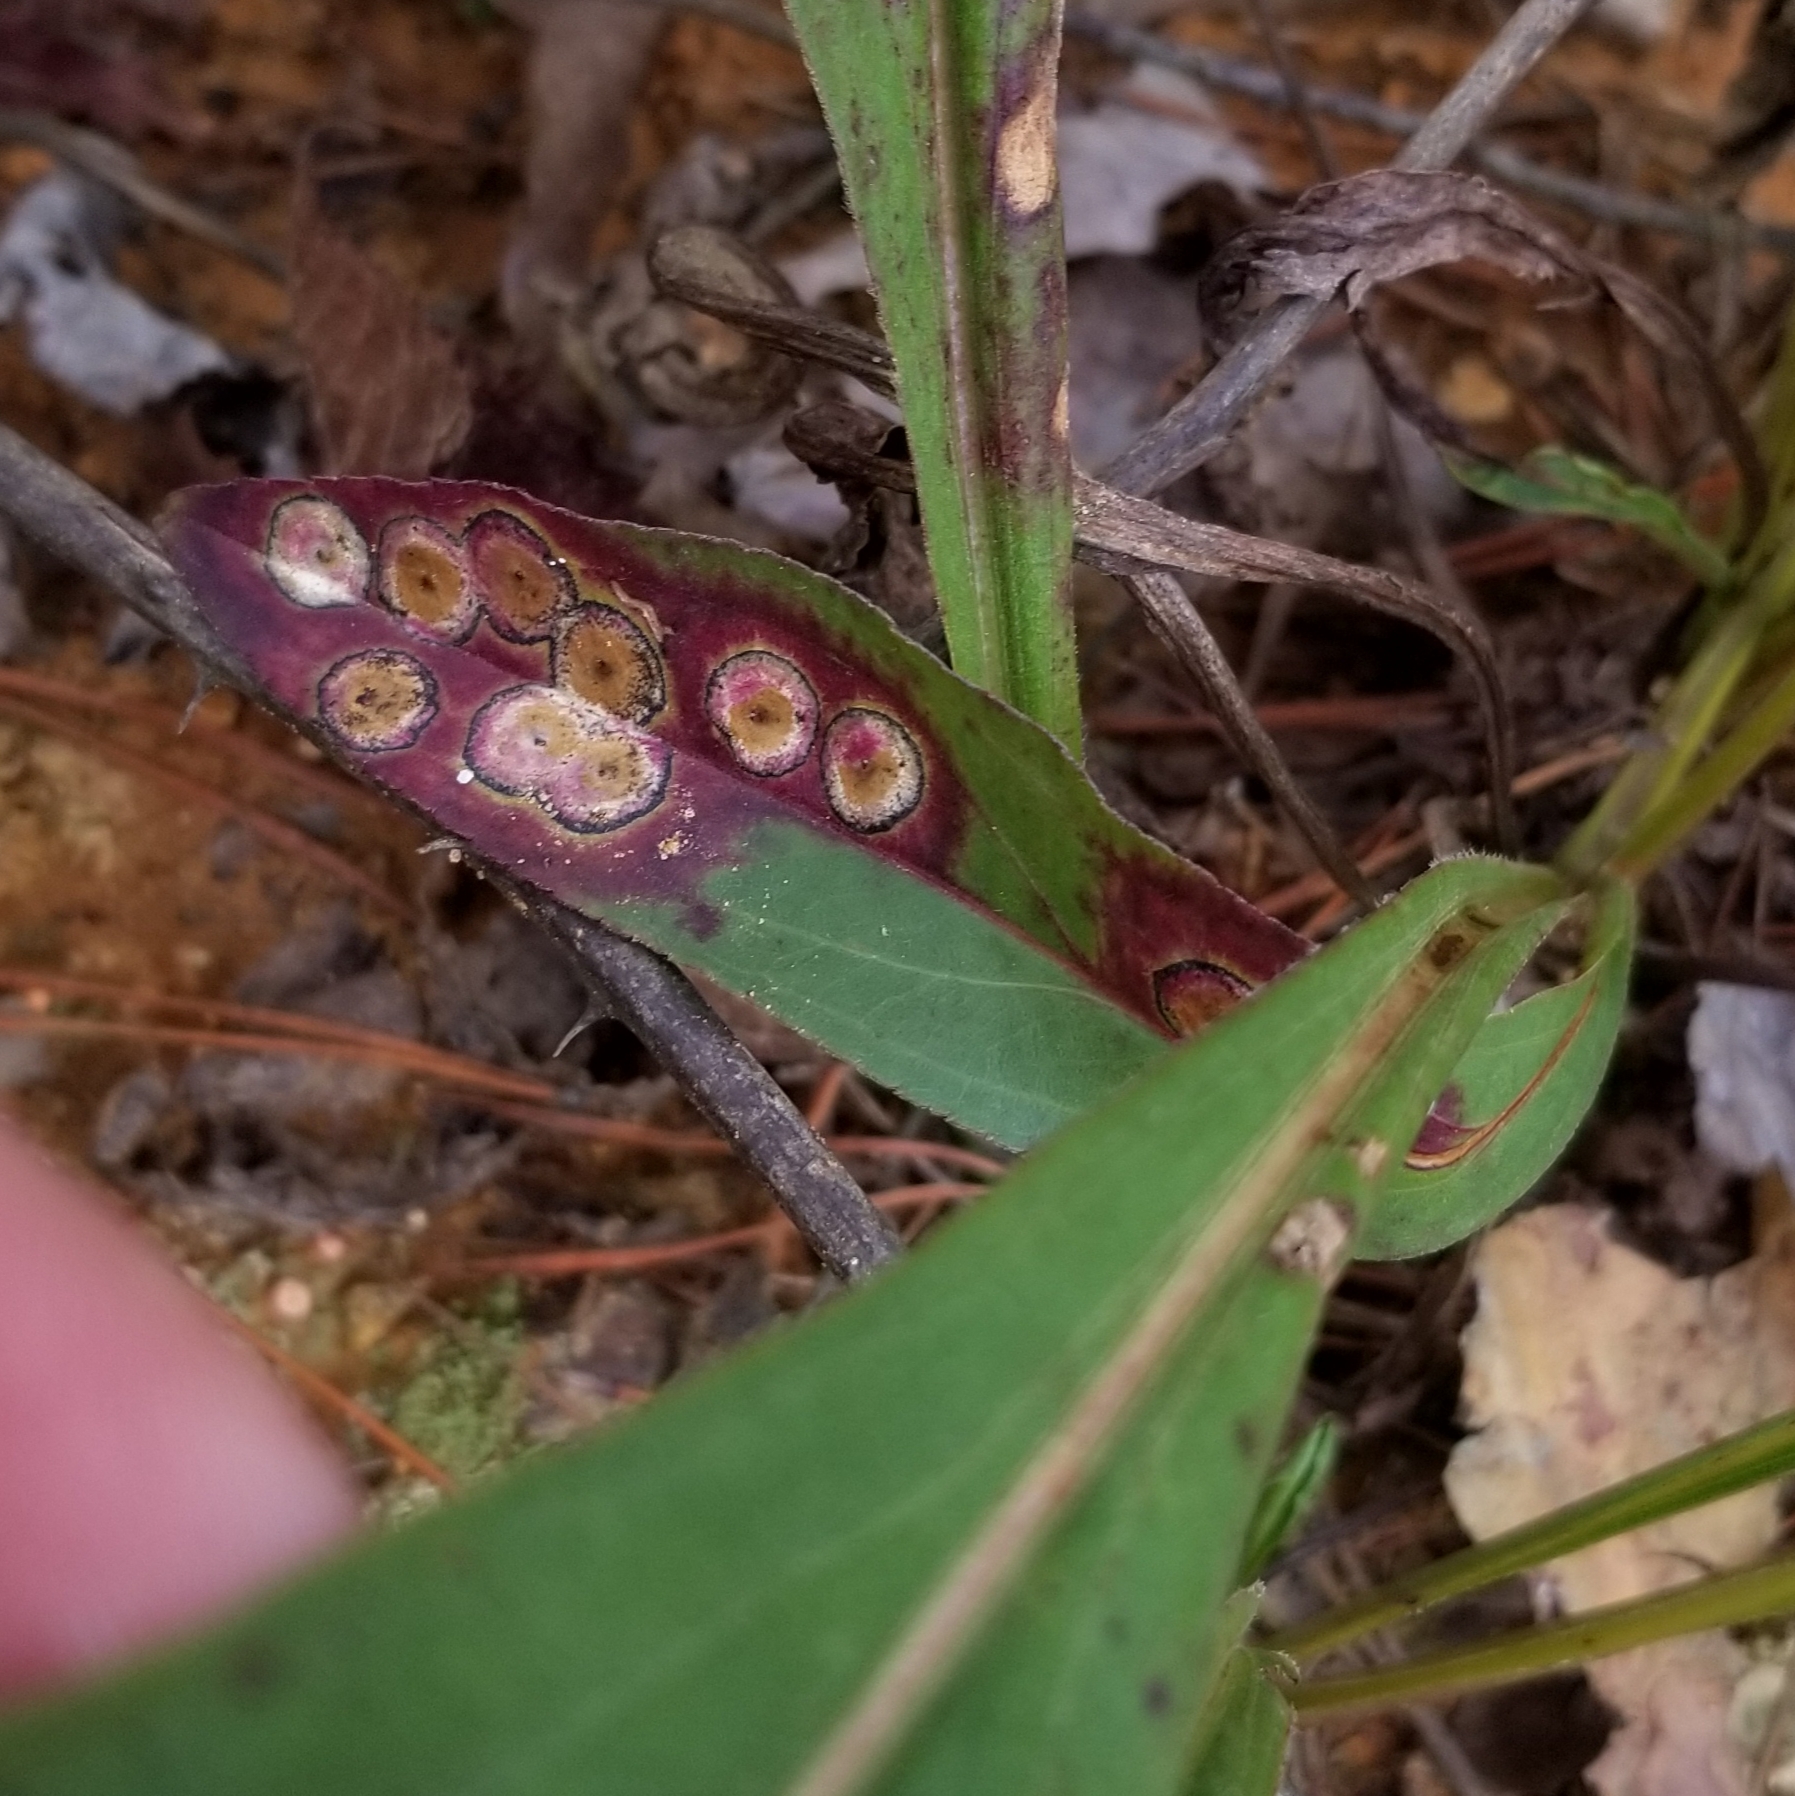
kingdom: Animalia
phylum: Arthropoda
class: Insecta
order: Diptera
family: Cecidomyiidae
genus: Asteromyia
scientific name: Asteromyia carbonifera
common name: Carbonifera goldenrod gall midge
